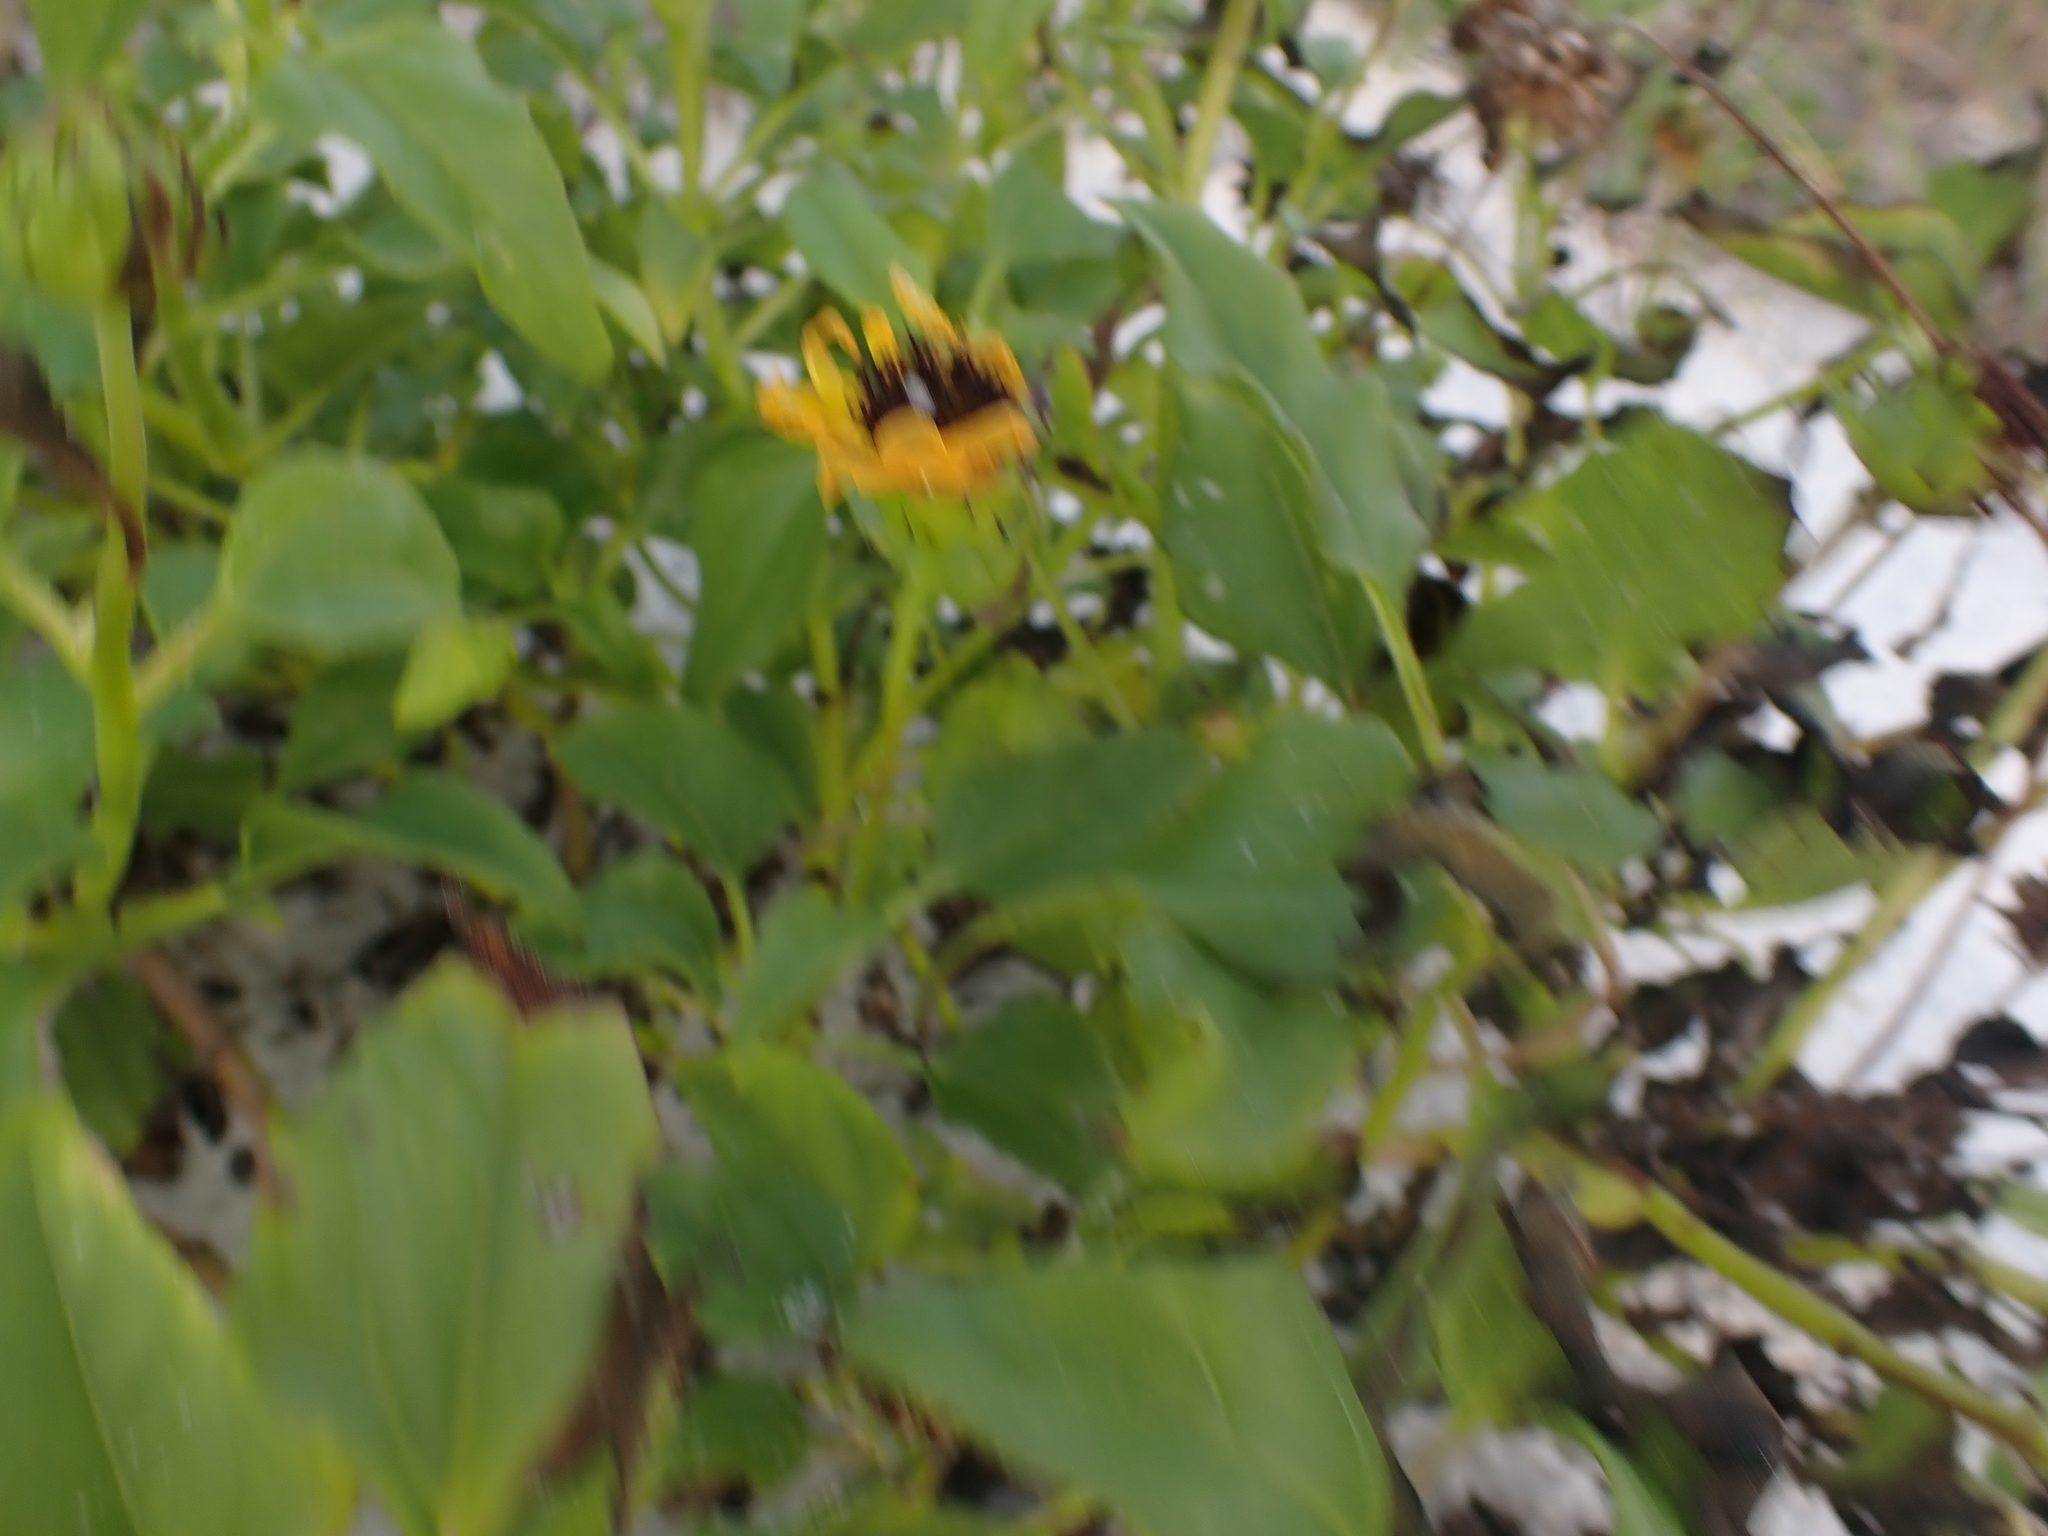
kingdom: Plantae
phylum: Tracheophyta
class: Magnoliopsida
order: Asterales
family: Asteraceae
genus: Helianthus
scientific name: Helianthus debilis
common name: Weak sunflower
